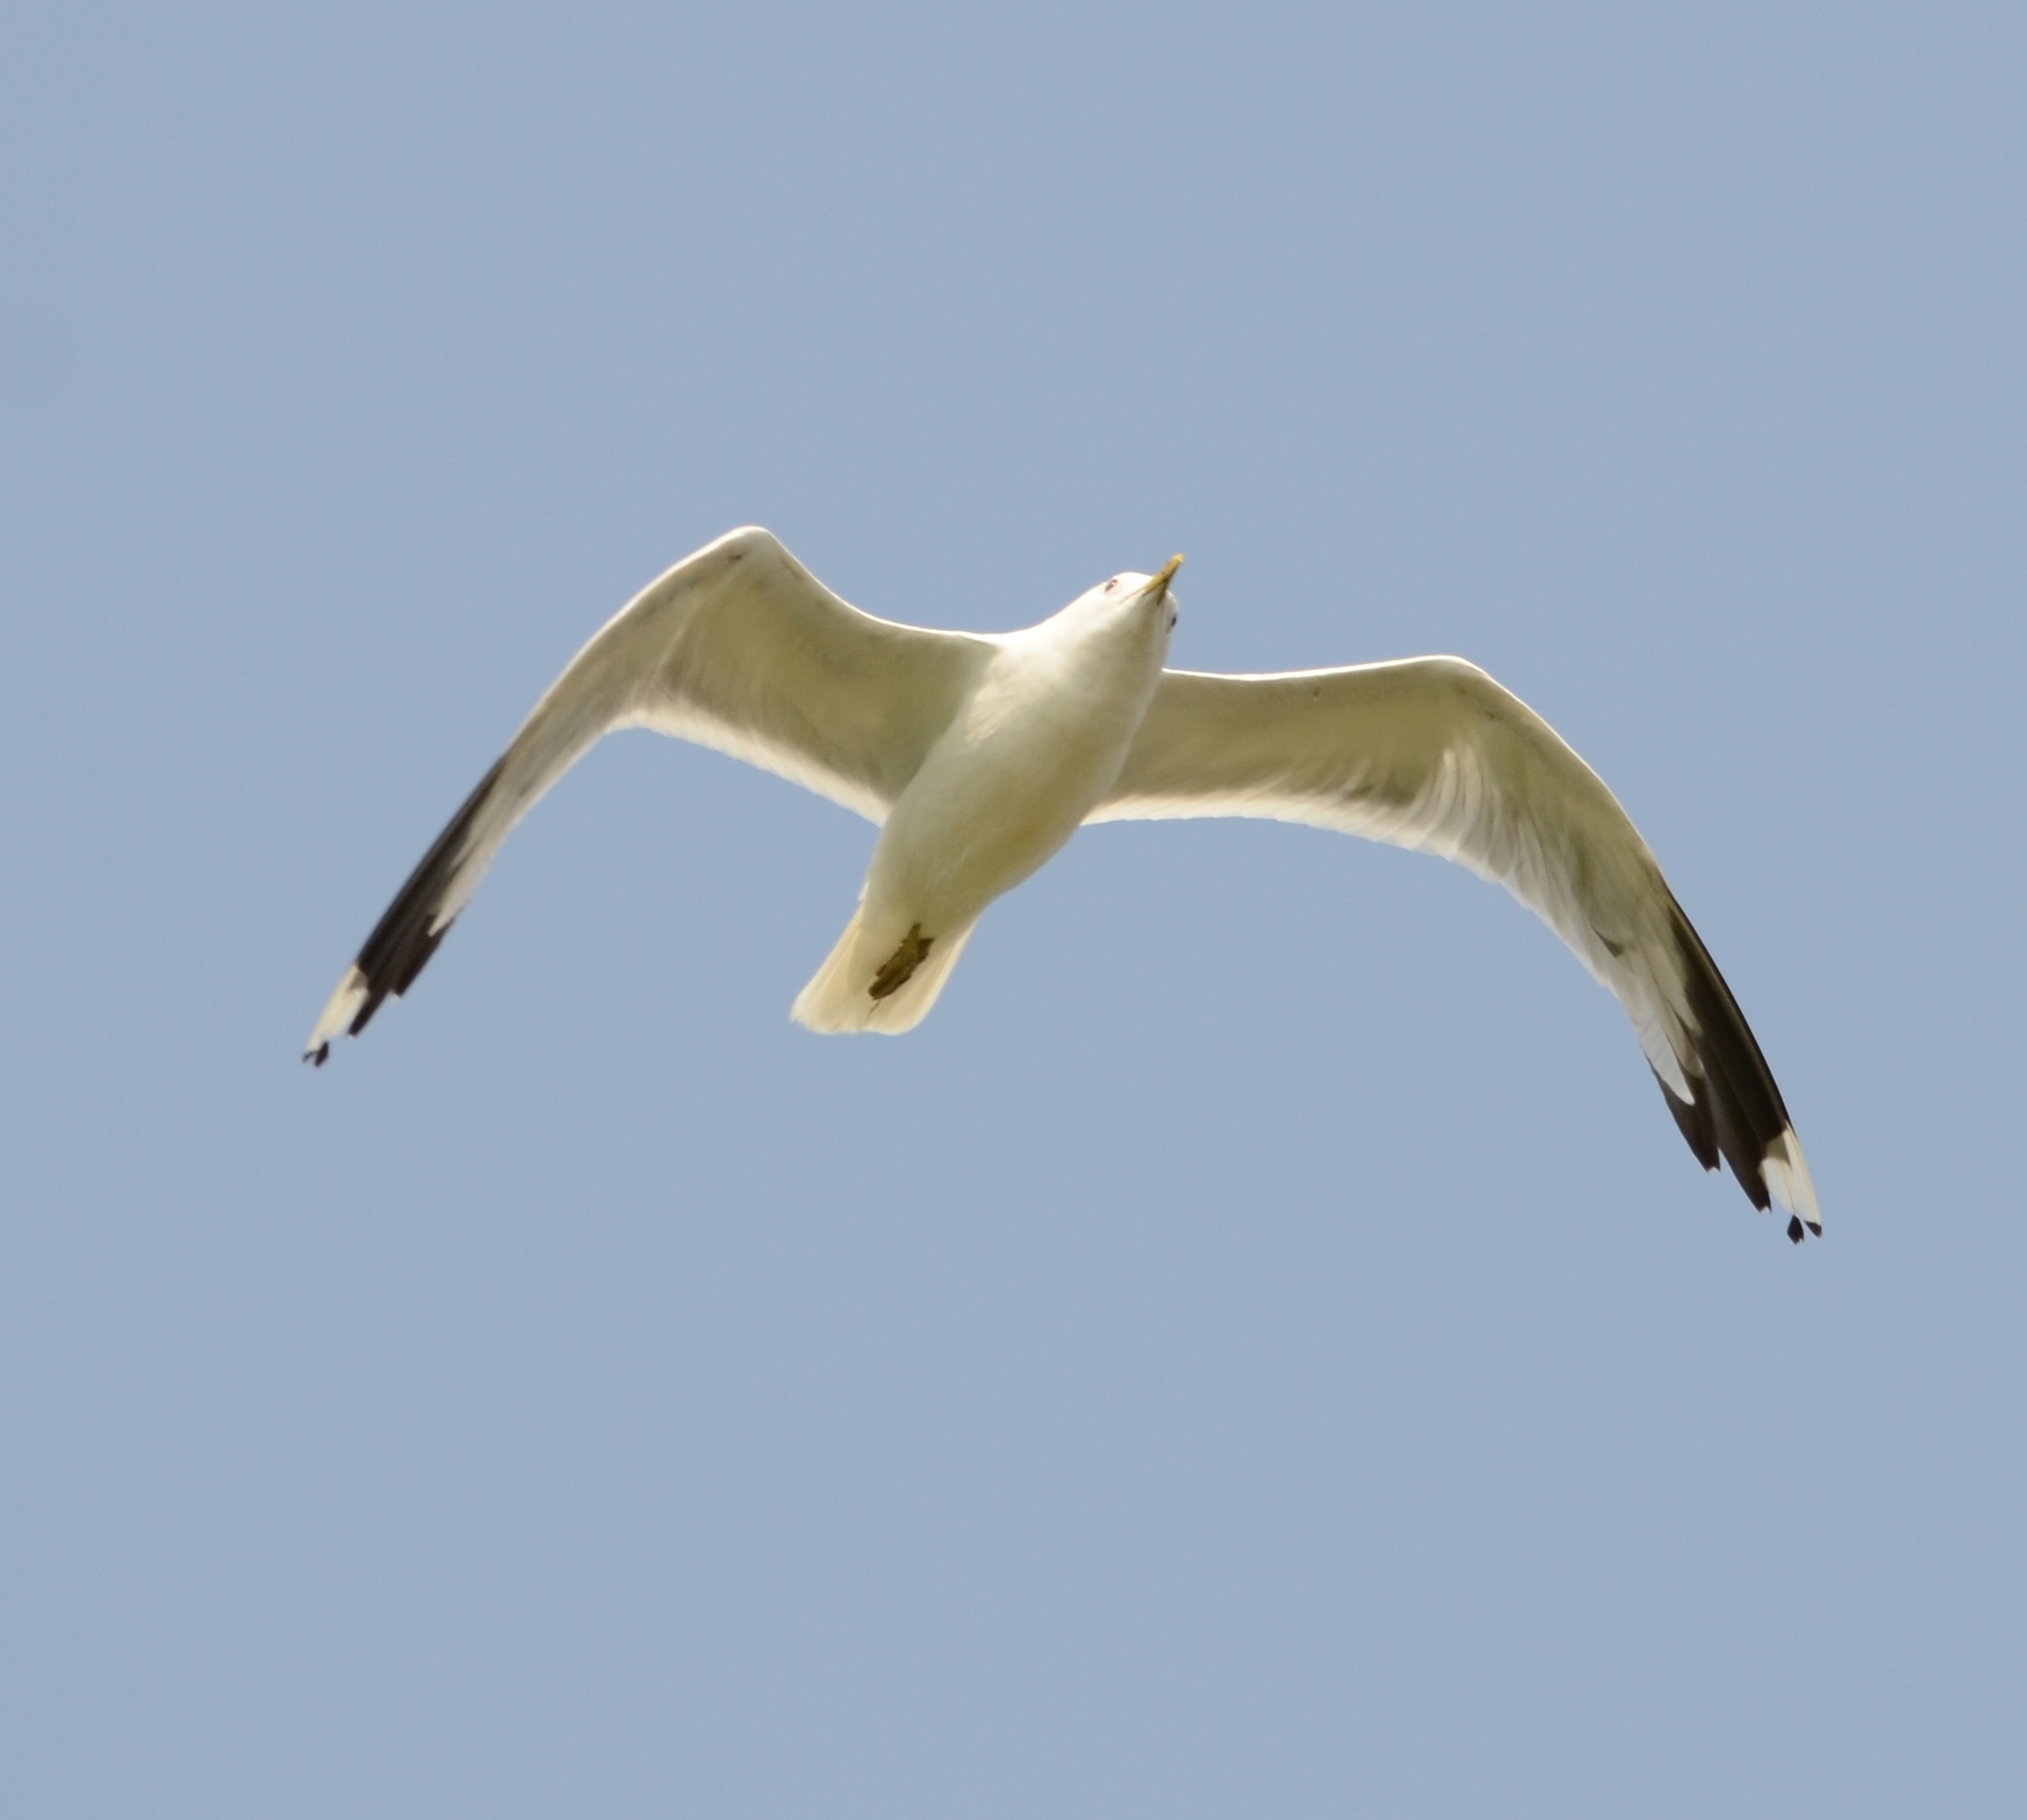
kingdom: Animalia
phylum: Chordata
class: Aves
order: Charadriiformes
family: Laridae
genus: Larus
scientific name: Larus canus
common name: Mew gull
